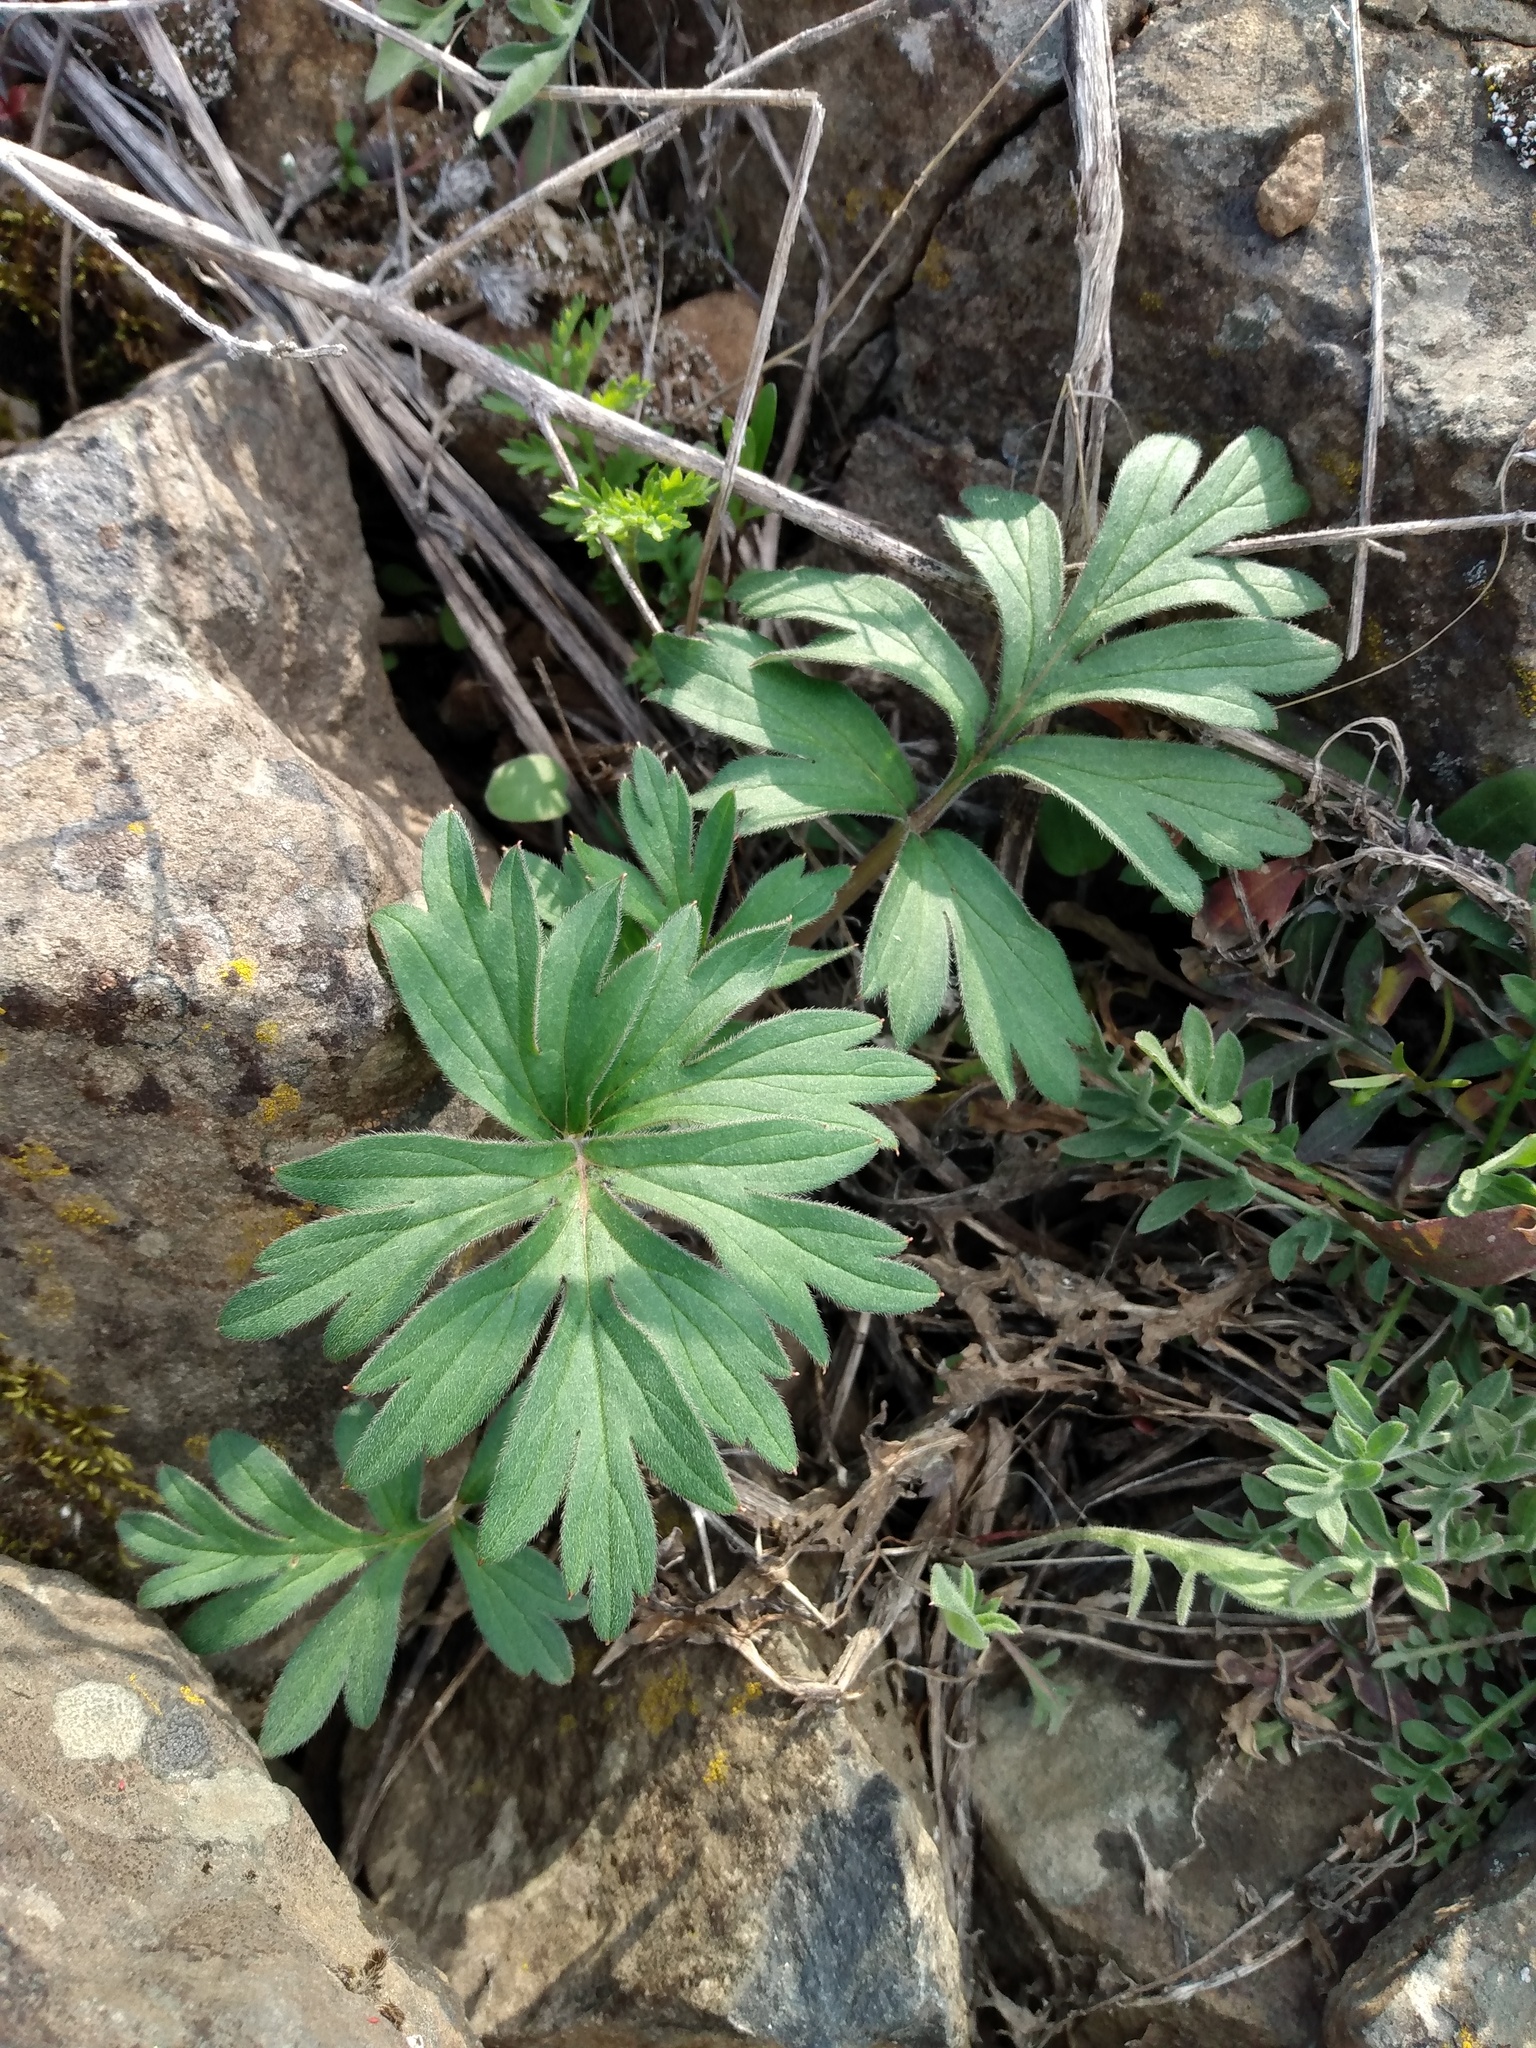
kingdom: Plantae
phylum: Tracheophyta
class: Magnoliopsida
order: Boraginales
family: Hydrophyllaceae
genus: Hydrophyllum
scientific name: Hydrophyllum capitatum
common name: Woollen-breeches
